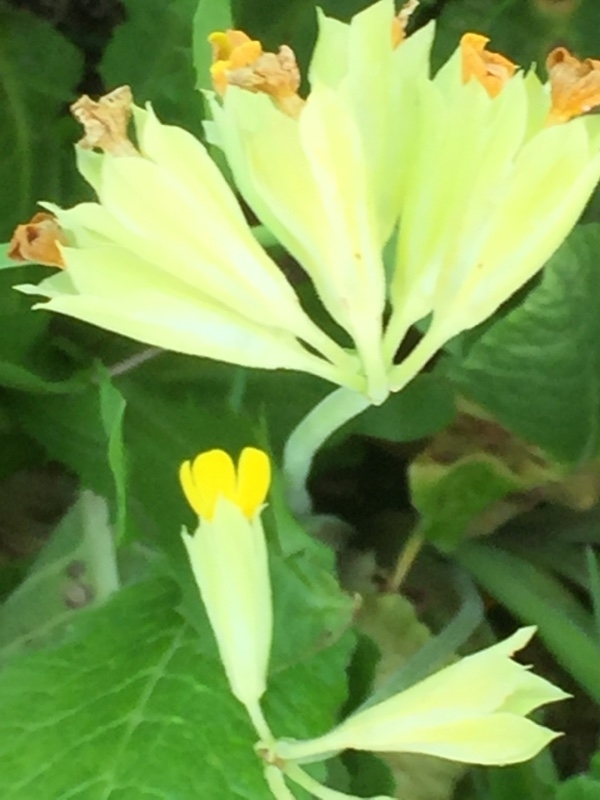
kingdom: Plantae
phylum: Tracheophyta
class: Magnoliopsida
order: Ericales
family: Primulaceae
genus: Primula
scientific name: Primula veris
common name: Cowslip
